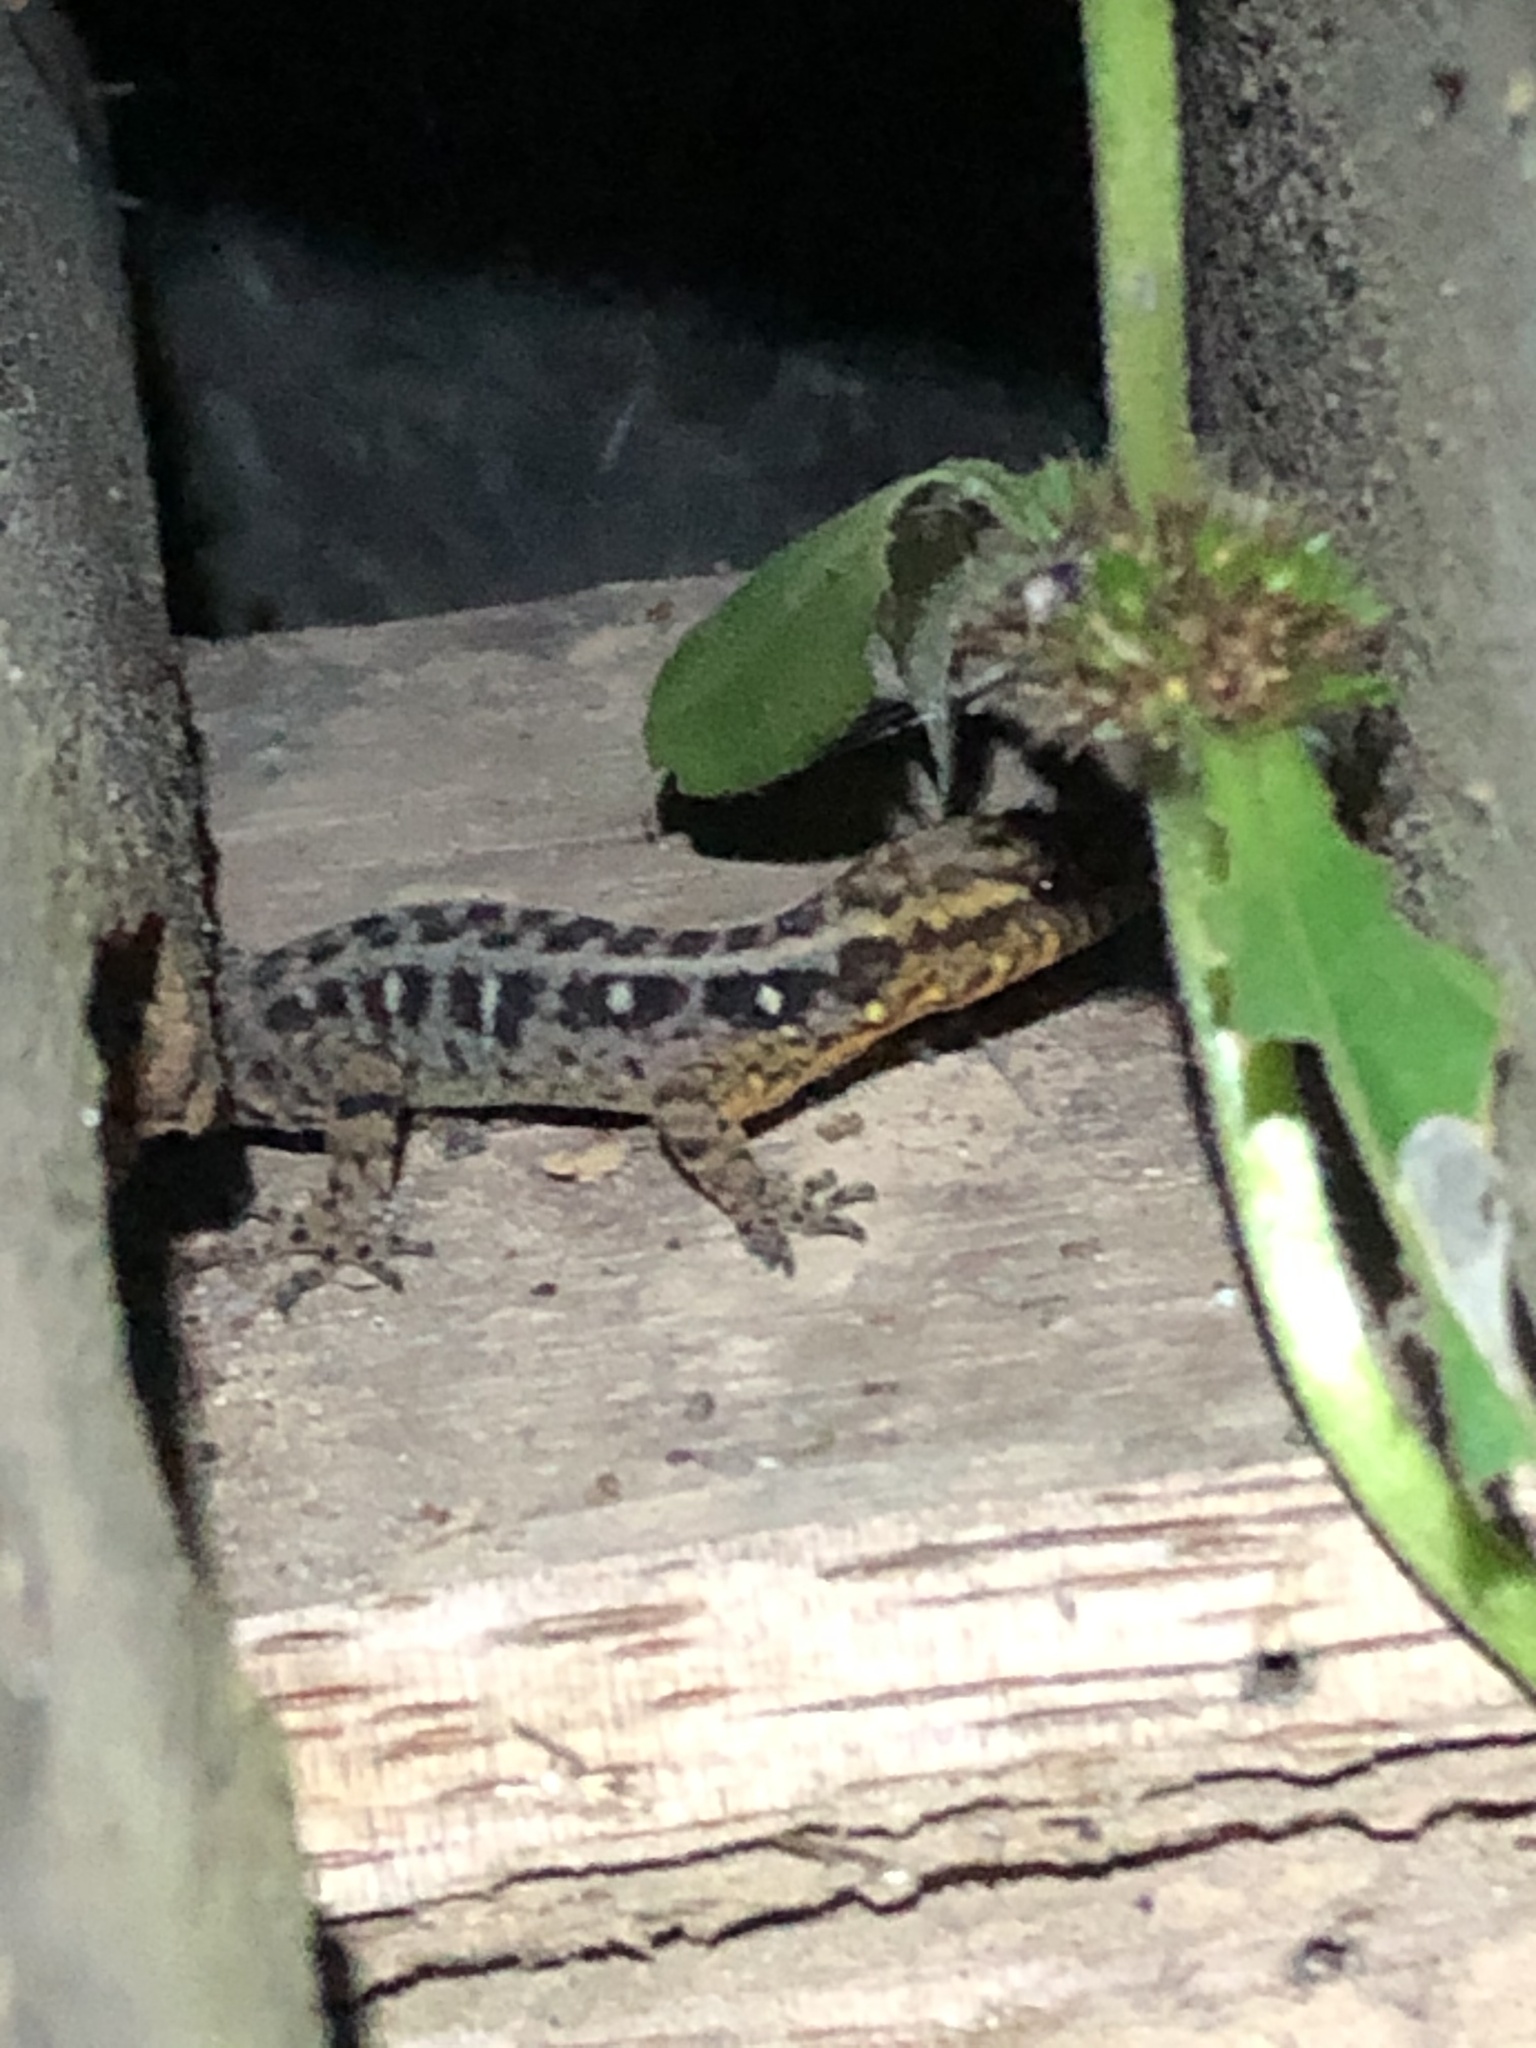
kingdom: Animalia
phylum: Chordata
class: Squamata
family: Sphaerodactylidae
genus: Gonatodes
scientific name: Gonatodes hasemani
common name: Haseman's gecko
